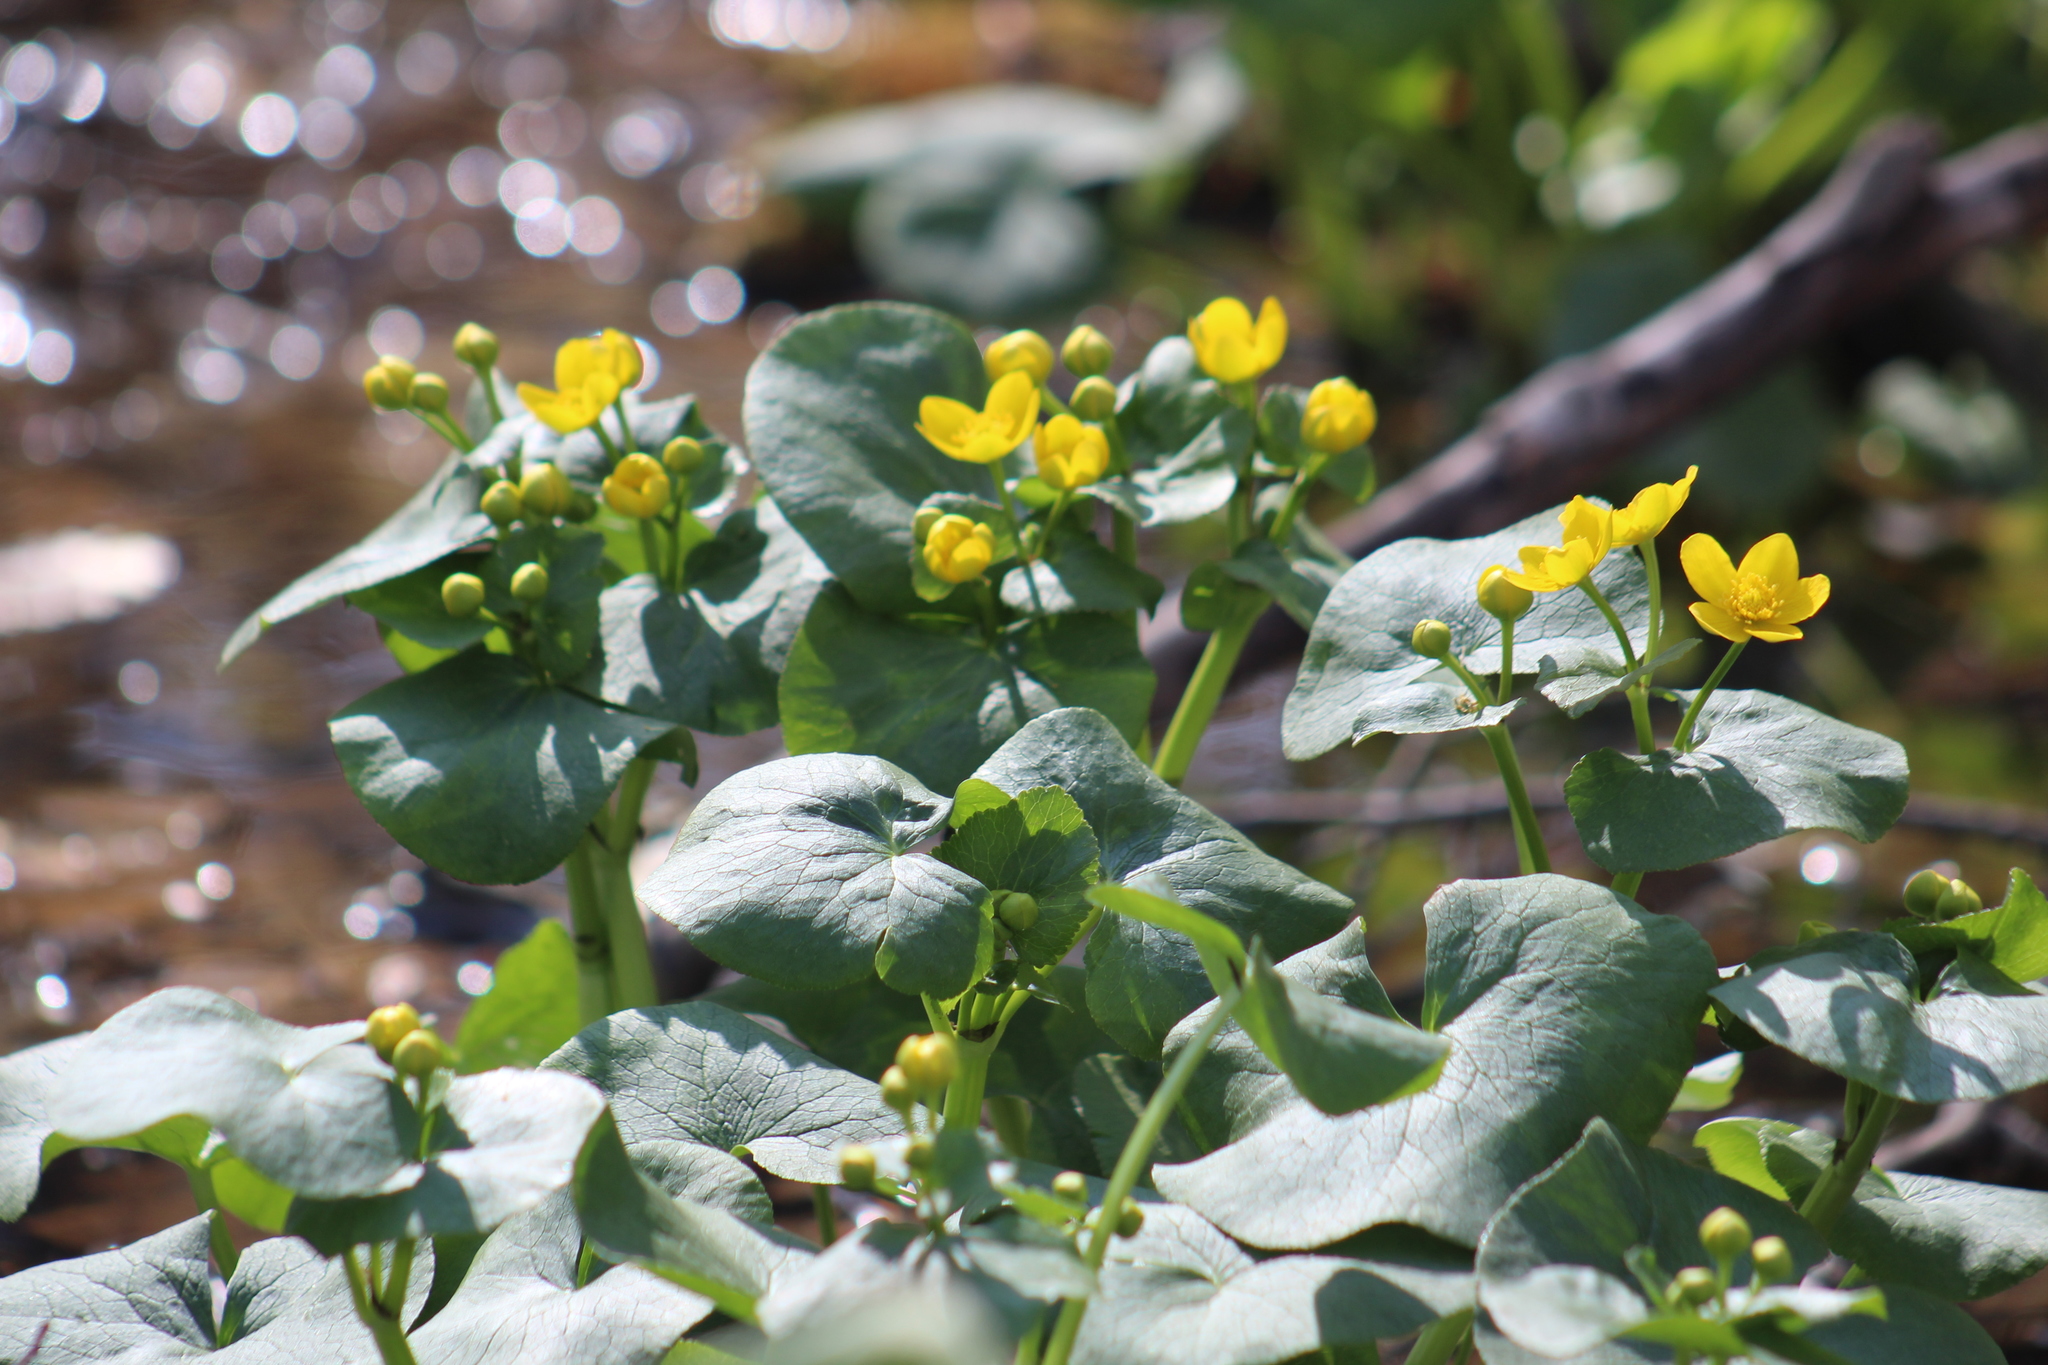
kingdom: Plantae
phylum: Tracheophyta
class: Magnoliopsida
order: Ranunculales
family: Ranunculaceae
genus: Caltha
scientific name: Caltha palustris
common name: Marsh marigold
